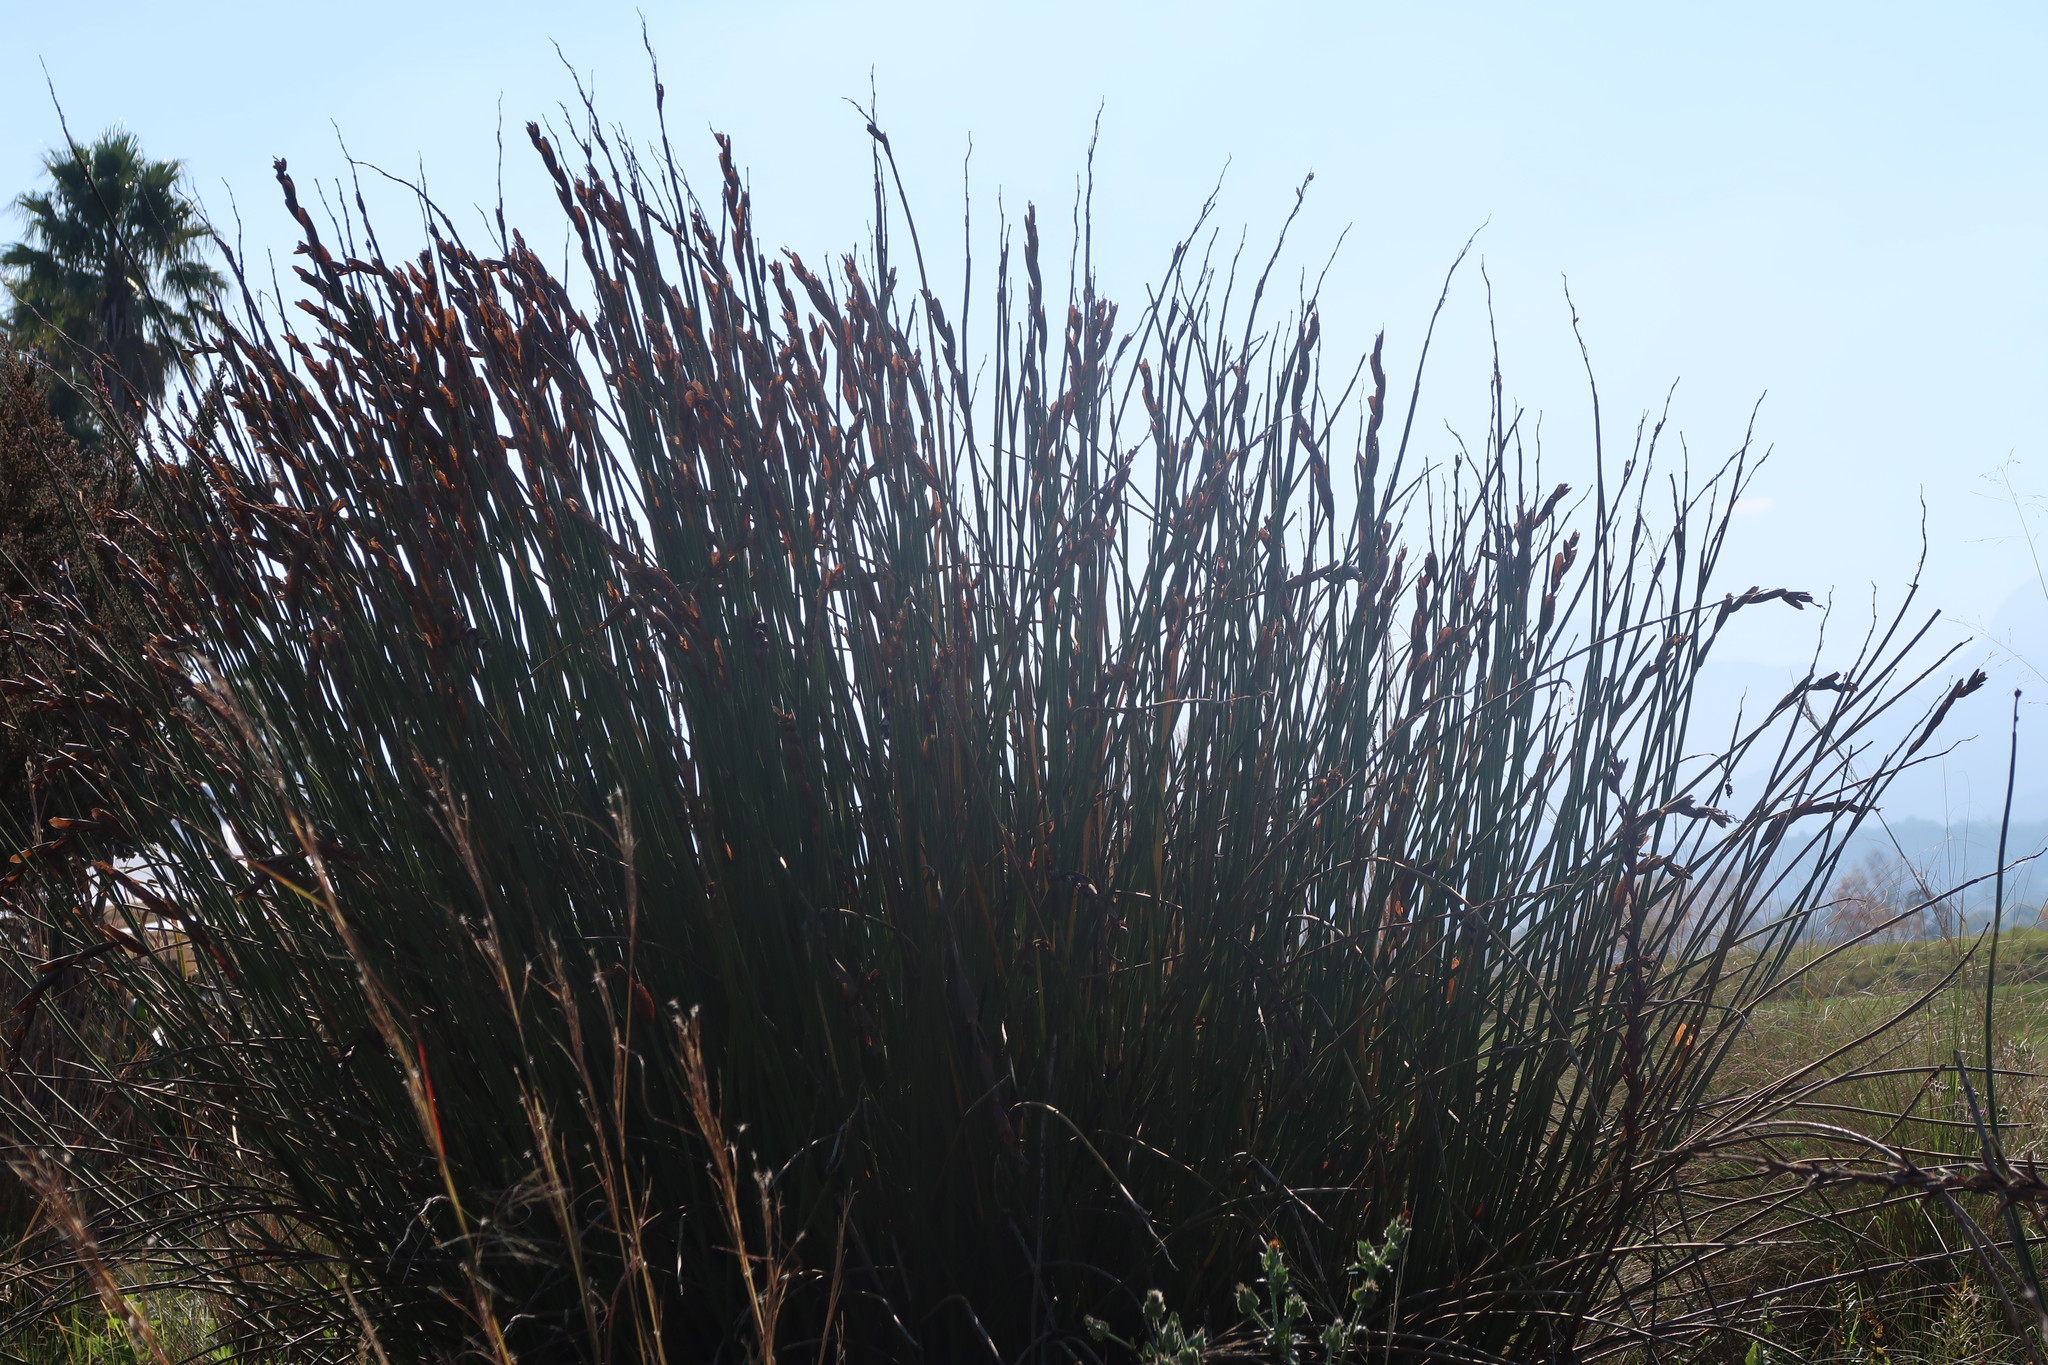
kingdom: Plantae
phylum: Tracheophyta
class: Liliopsida
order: Poales
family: Restionaceae
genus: Elegia
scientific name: Elegia equisetacea
